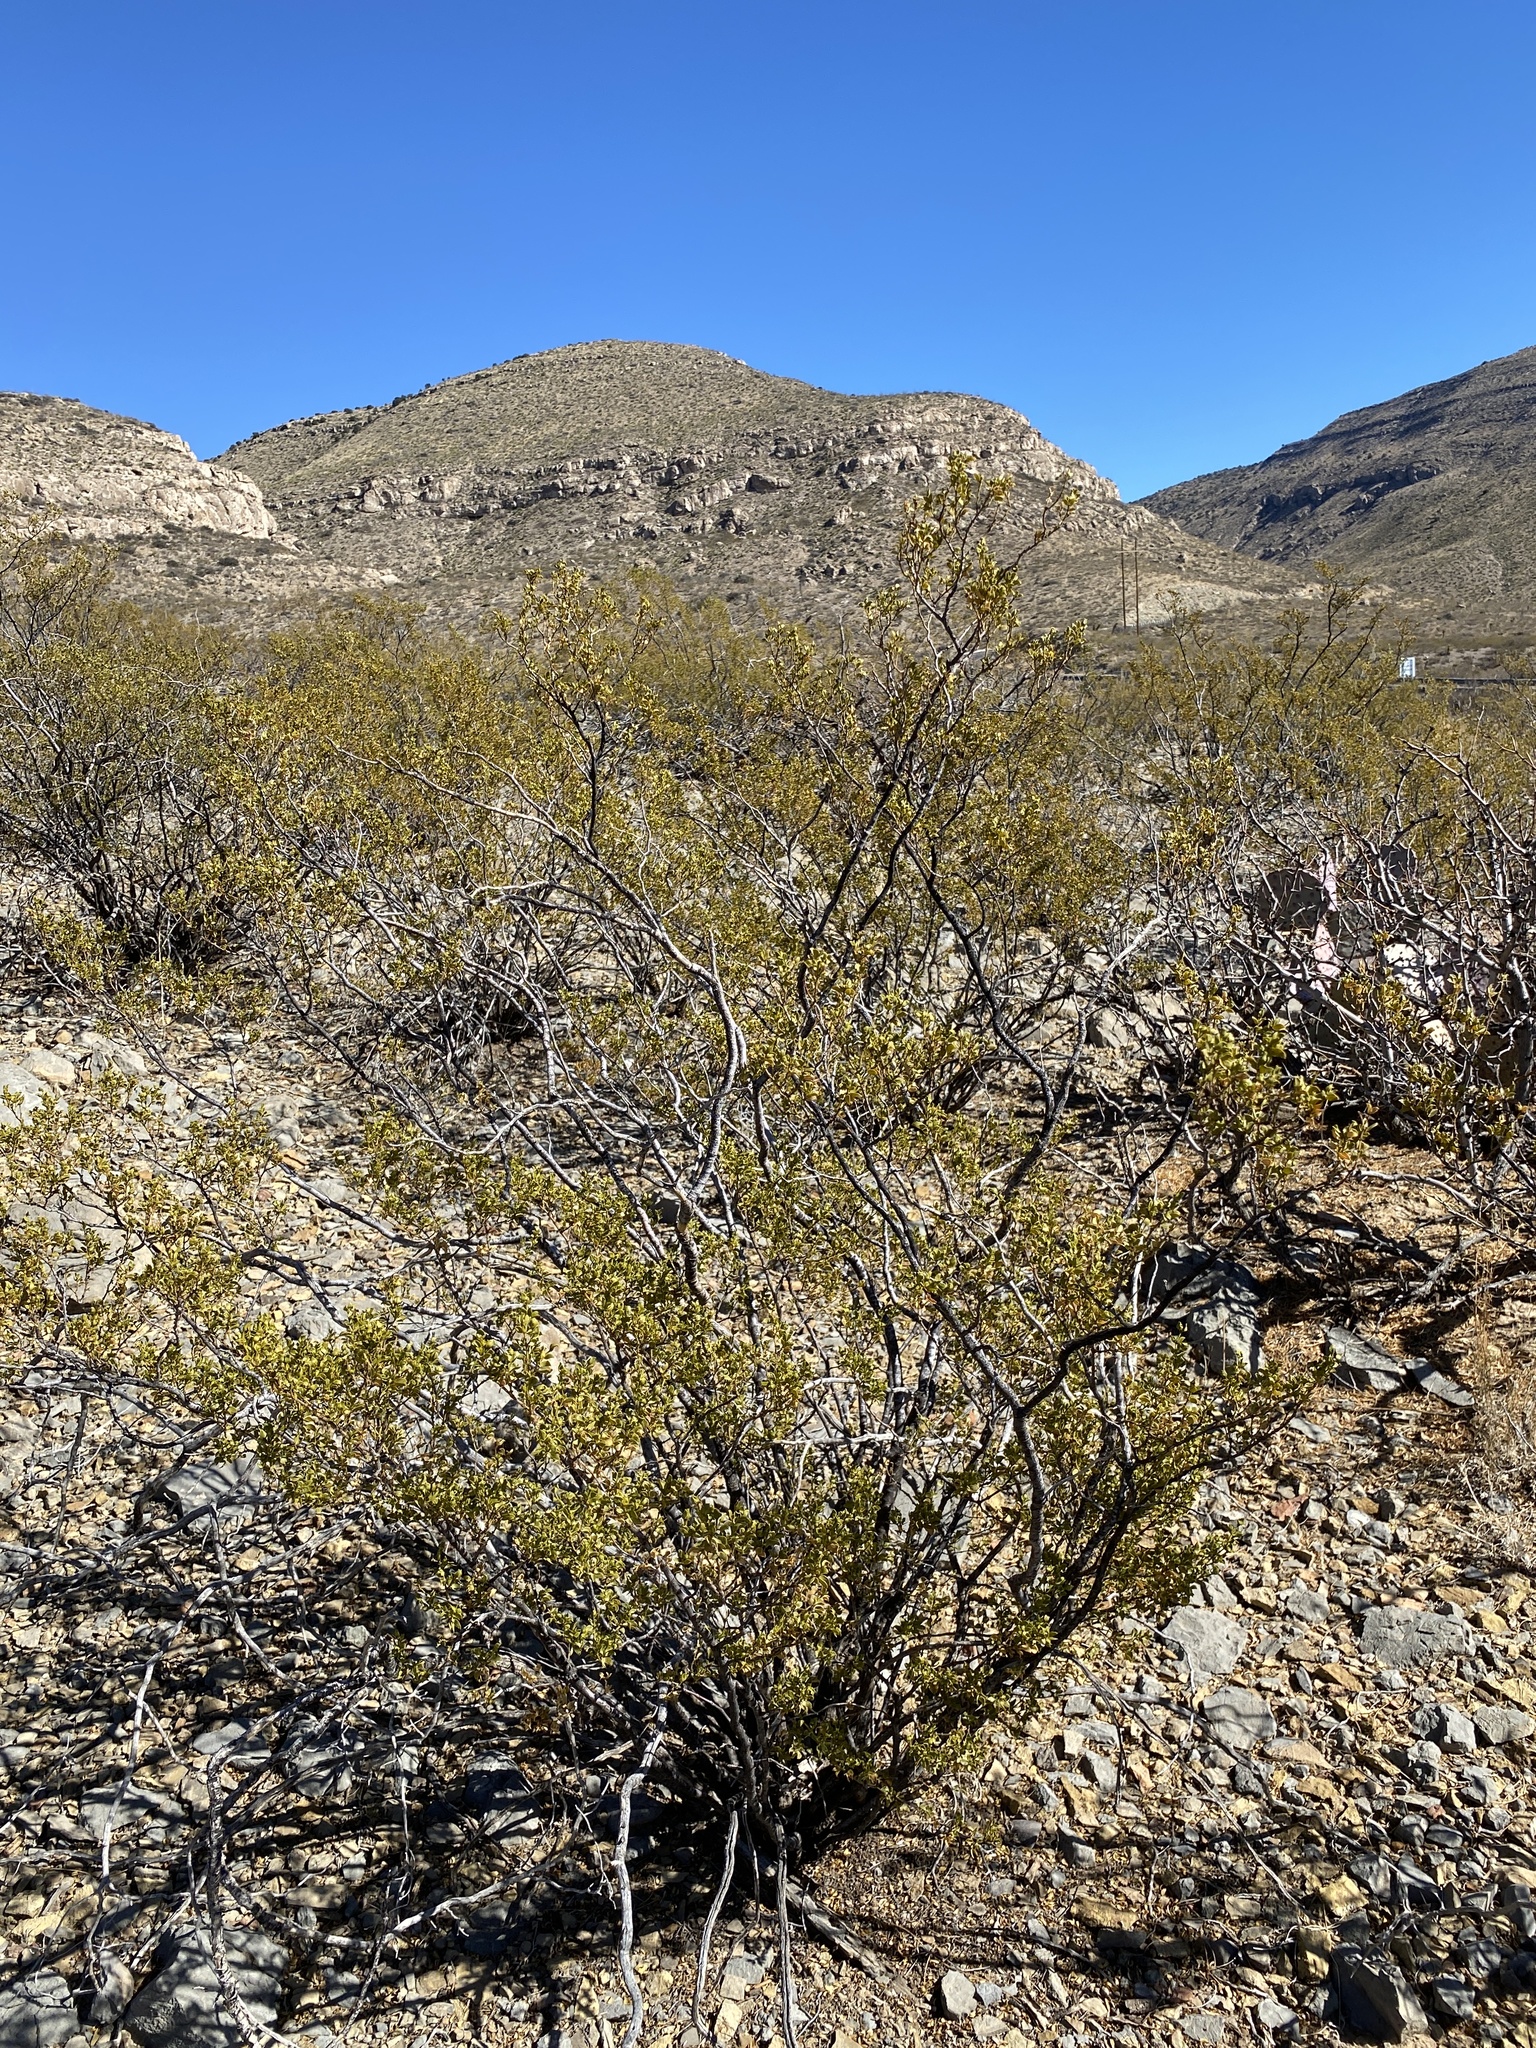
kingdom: Plantae
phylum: Tracheophyta
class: Magnoliopsida
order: Zygophyllales
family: Zygophyllaceae
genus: Larrea
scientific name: Larrea tridentata
